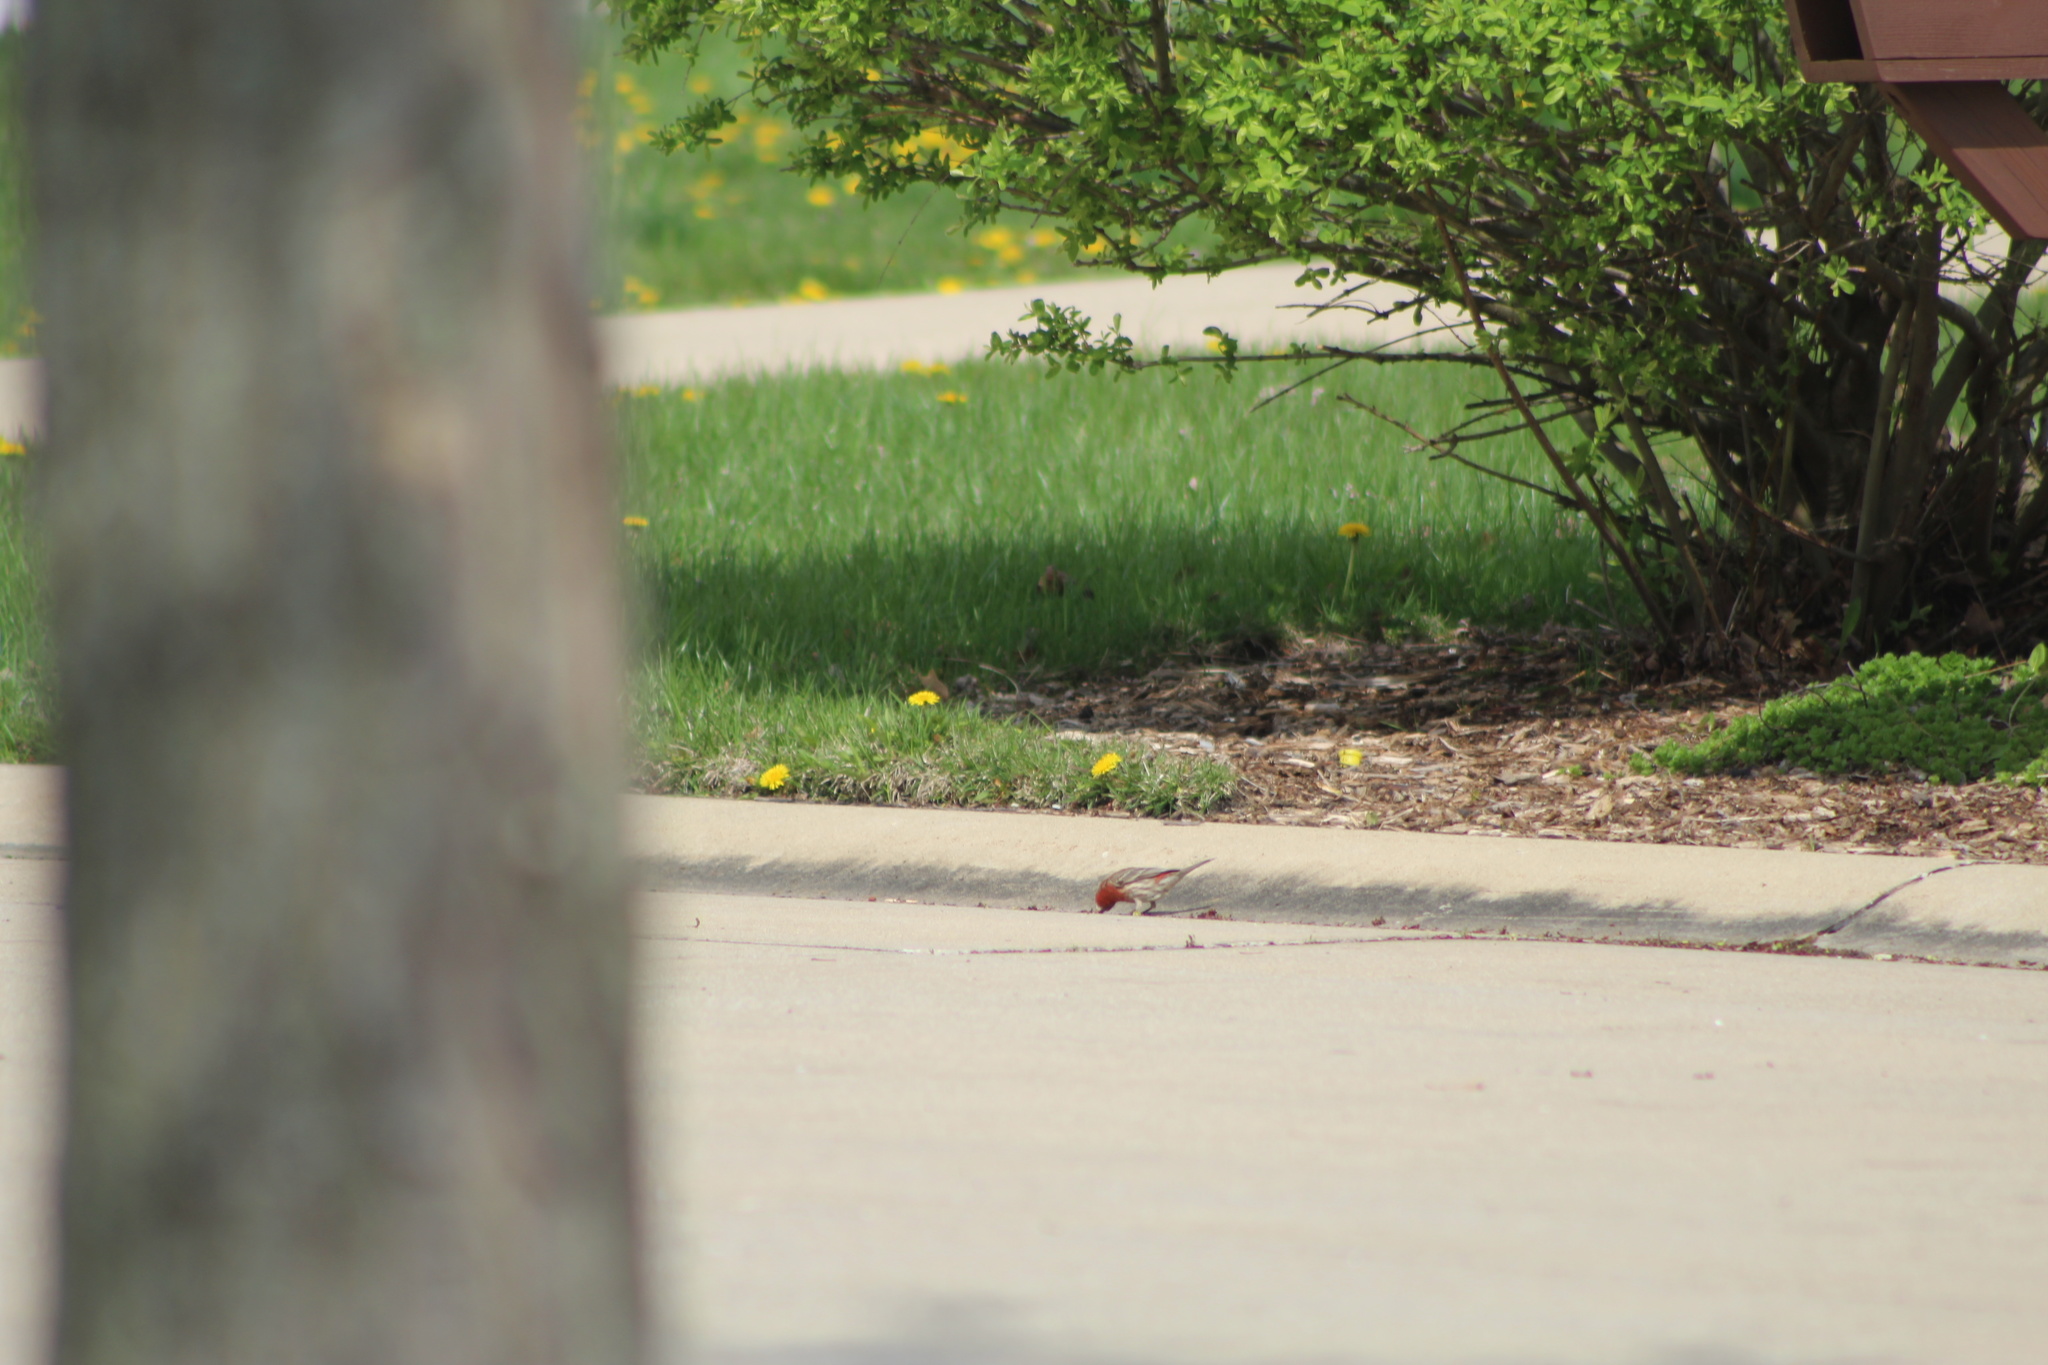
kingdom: Animalia
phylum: Chordata
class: Aves
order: Passeriformes
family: Fringillidae
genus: Haemorhous
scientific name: Haemorhous mexicanus
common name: House finch
